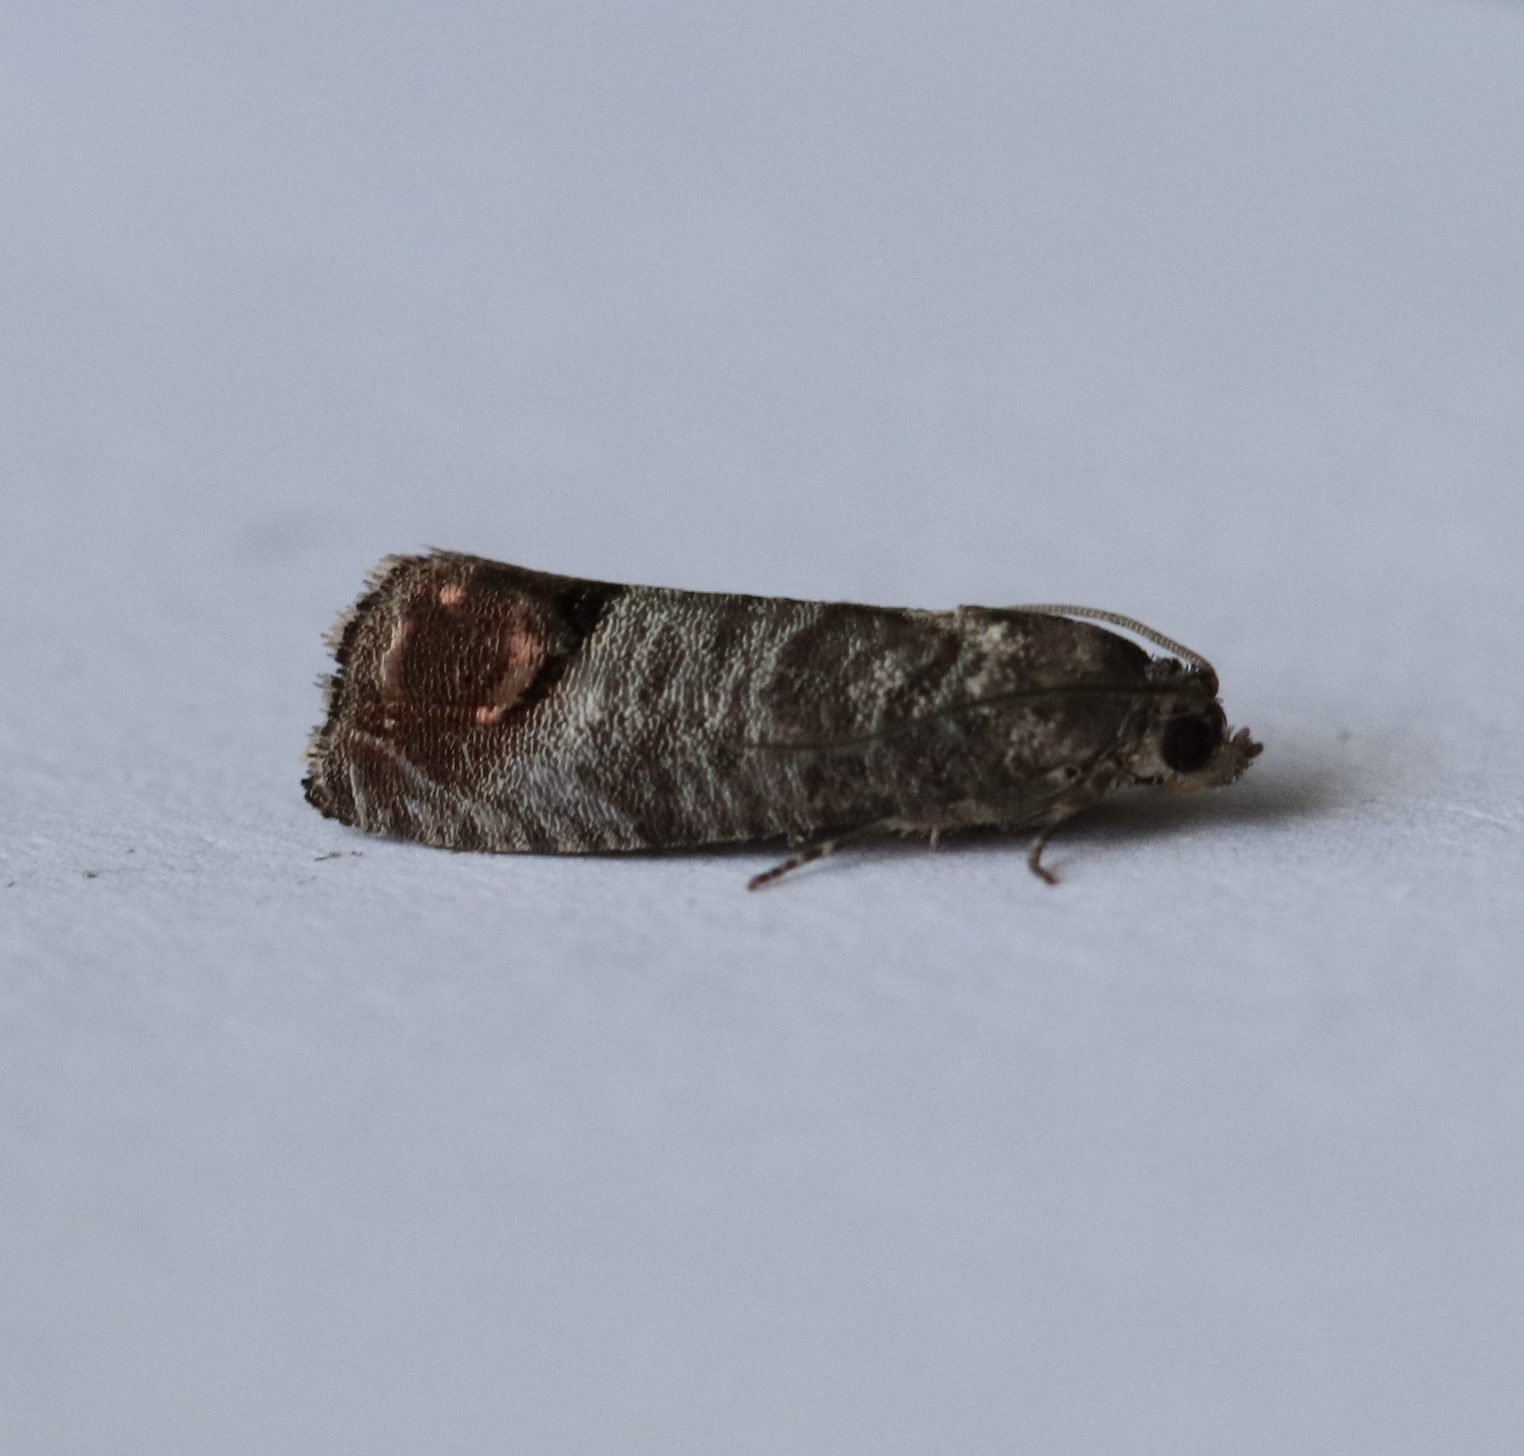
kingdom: Animalia
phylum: Arthropoda
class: Insecta
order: Lepidoptera
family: Tortricidae
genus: Cydia
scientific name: Cydia pomonella
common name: Codling moth
